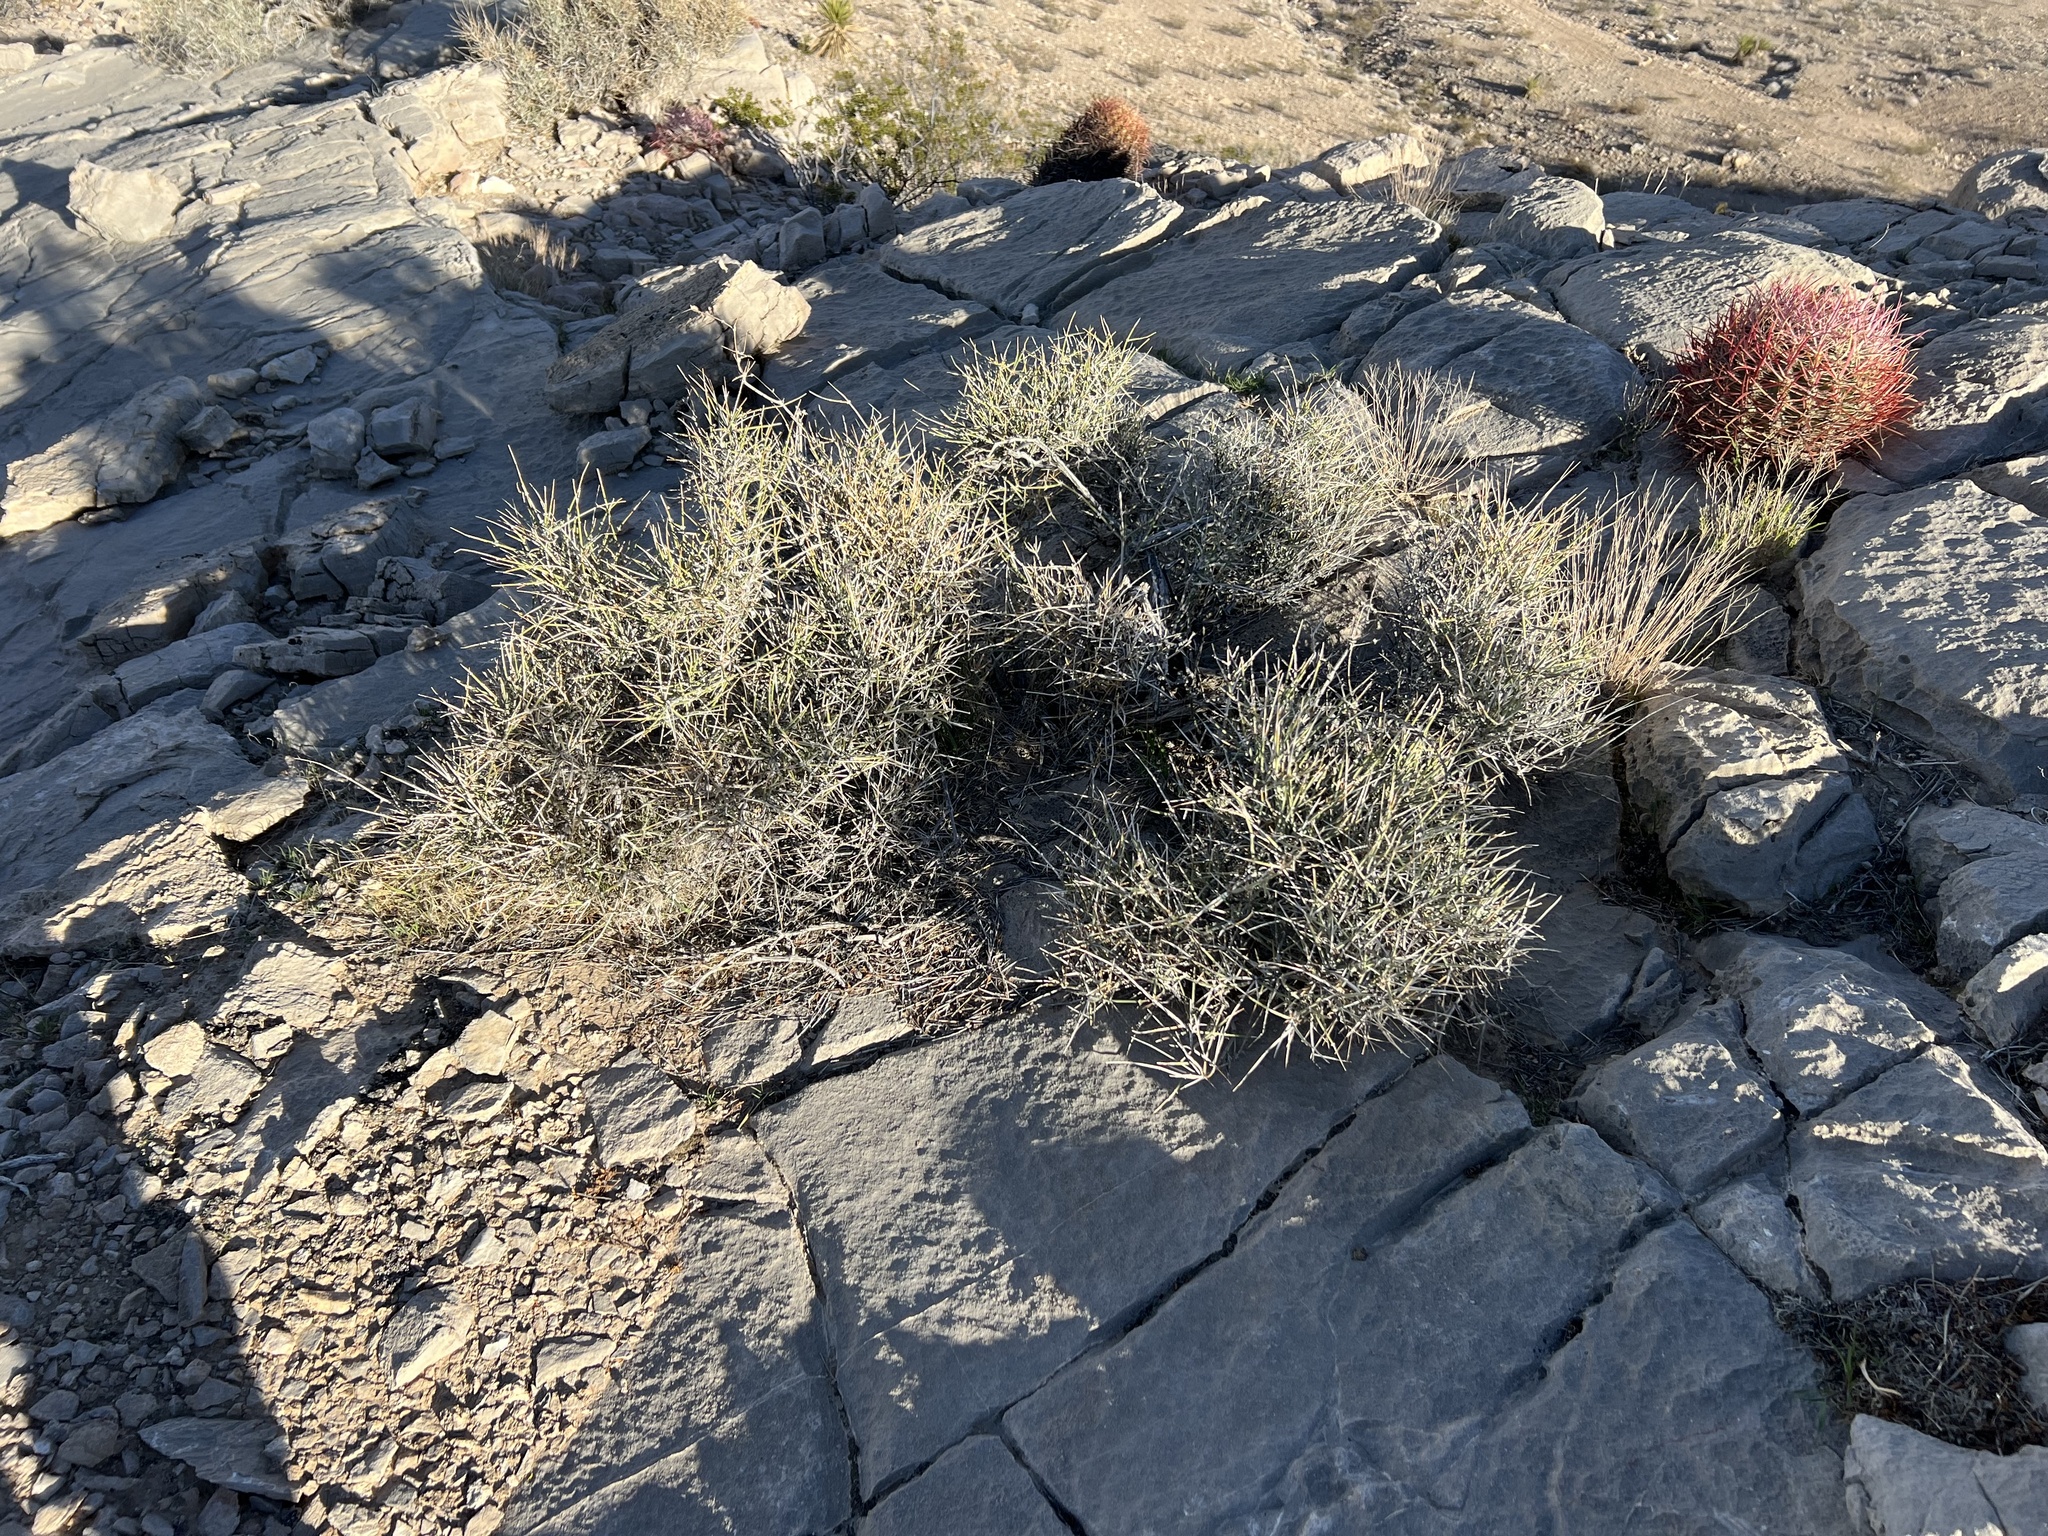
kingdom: Plantae
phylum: Tracheophyta
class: Gnetopsida
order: Ephedrales
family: Ephedraceae
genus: Ephedra
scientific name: Ephedra nevadensis
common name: Gray ephedra
